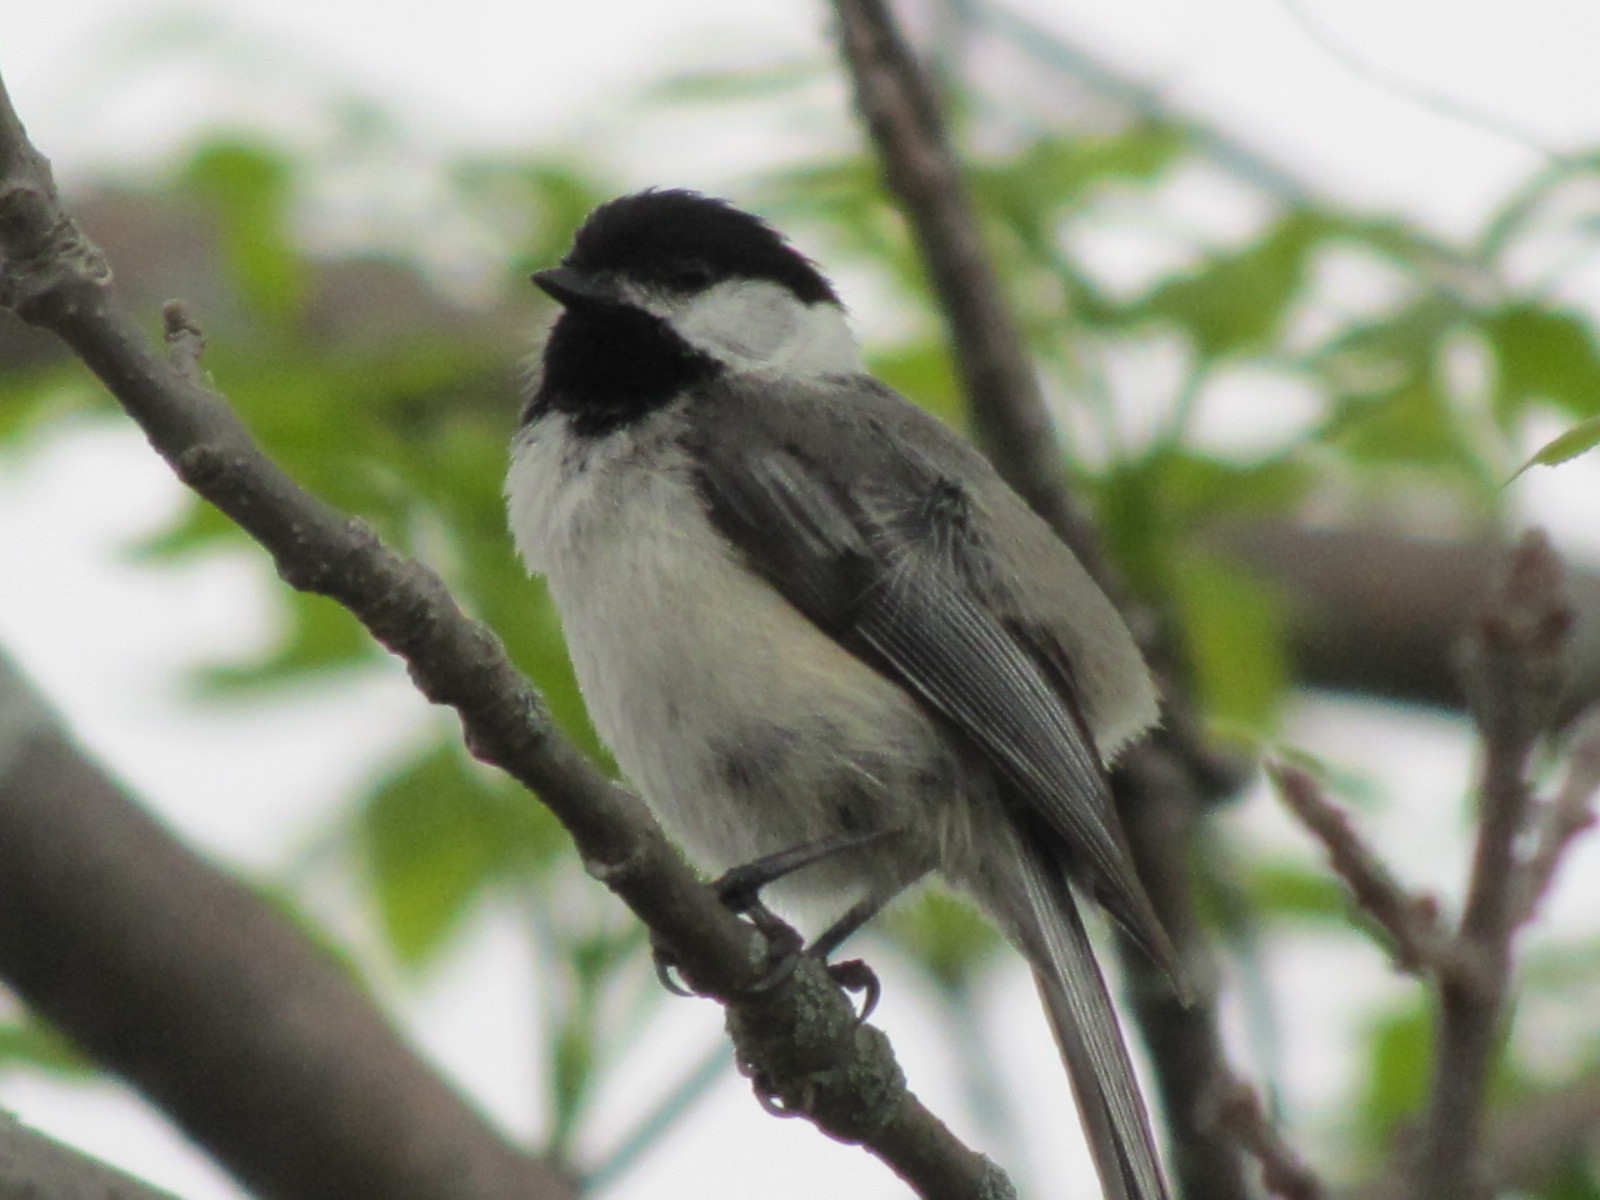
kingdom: Animalia
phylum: Chordata
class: Aves
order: Passeriformes
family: Paridae
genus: Poecile
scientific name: Poecile atricapillus
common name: Black-capped chickadee
